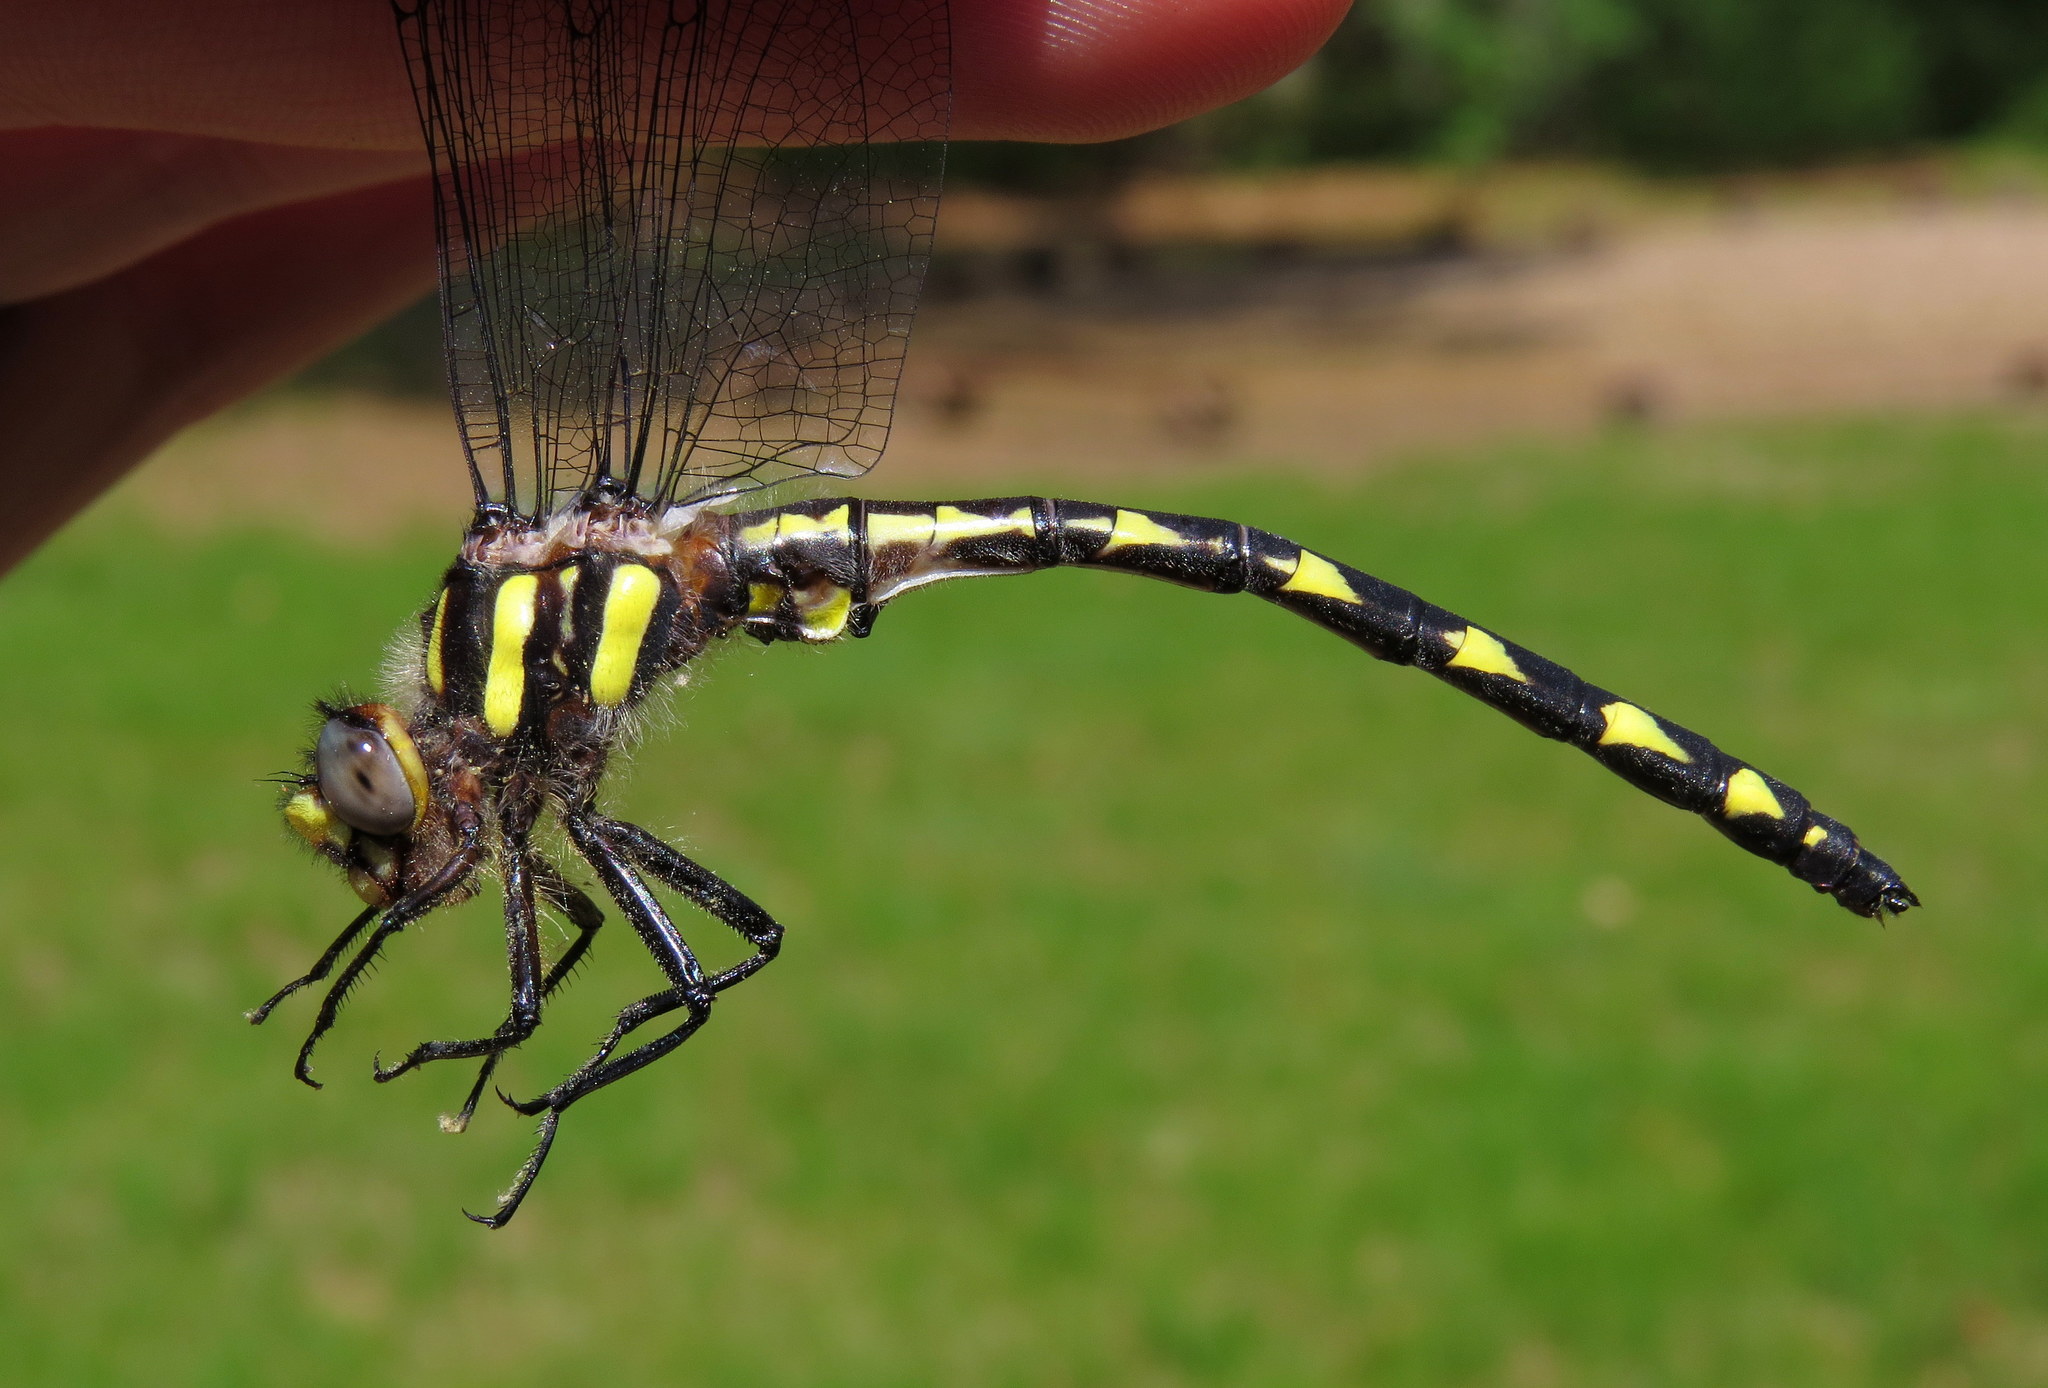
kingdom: Animalia
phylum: Arthropoda
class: Insecta
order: Odonata
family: Cordulegastridae
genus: Cordulegaster
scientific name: Cordulegaster diastatops
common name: Delta-spotted spiketail
